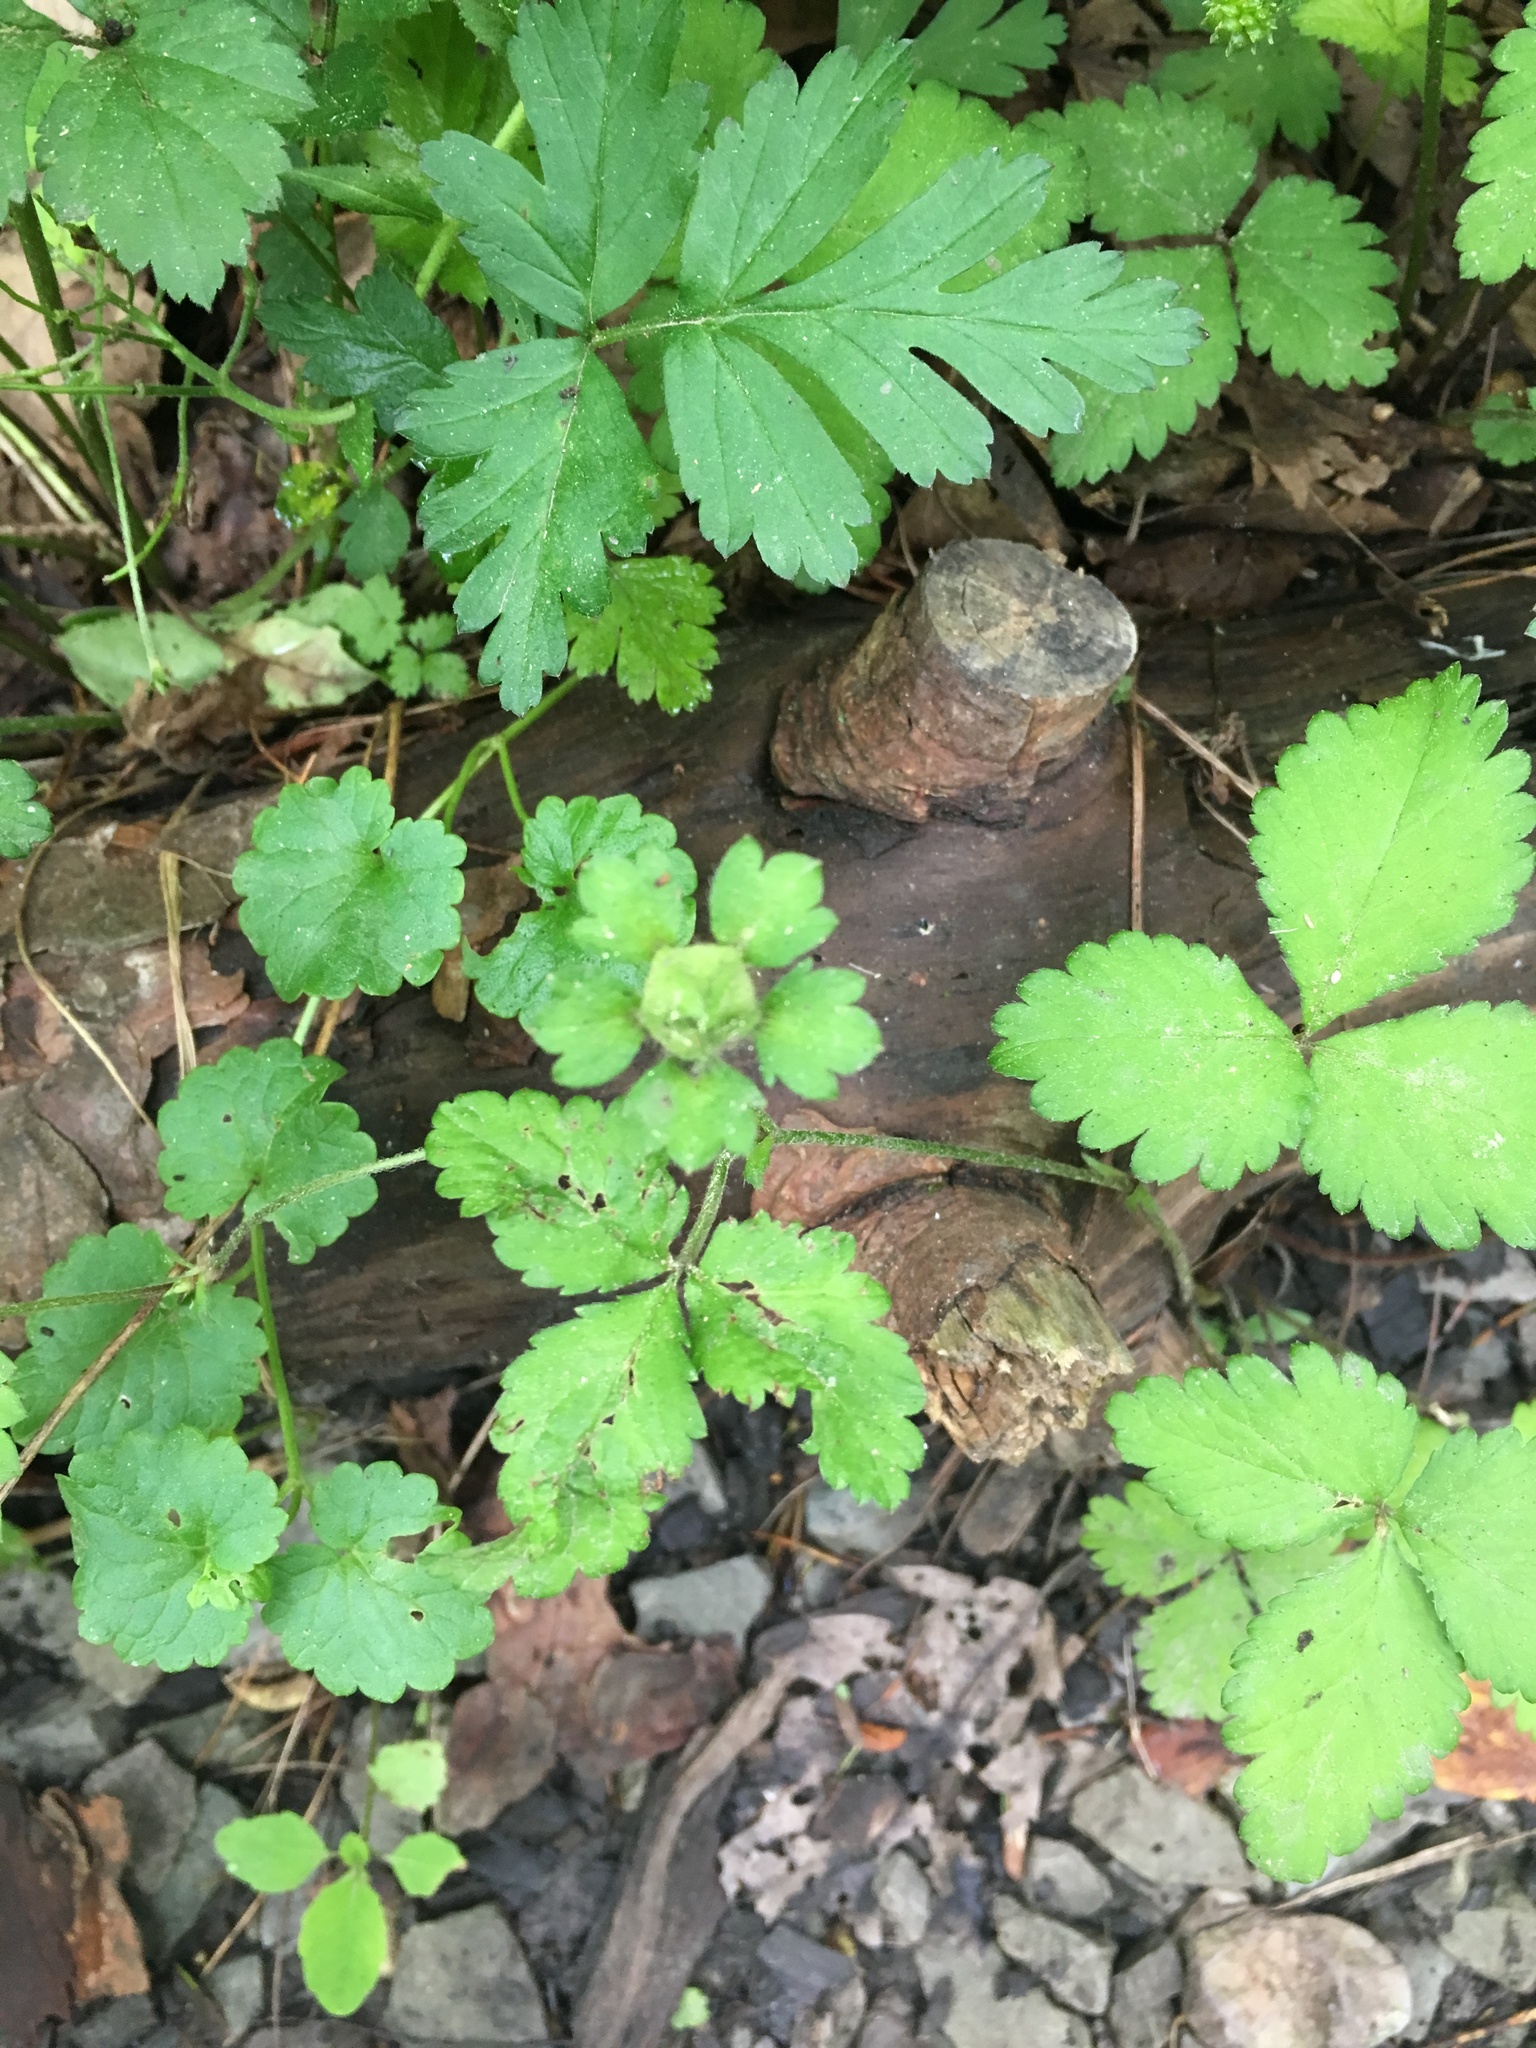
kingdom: Plantae
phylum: Tracheophyta
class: Magnoliopsida
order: Rosales
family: Rosaceae
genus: Potentilla
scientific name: Potentilla indica
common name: Yellow-flowered strawberry
